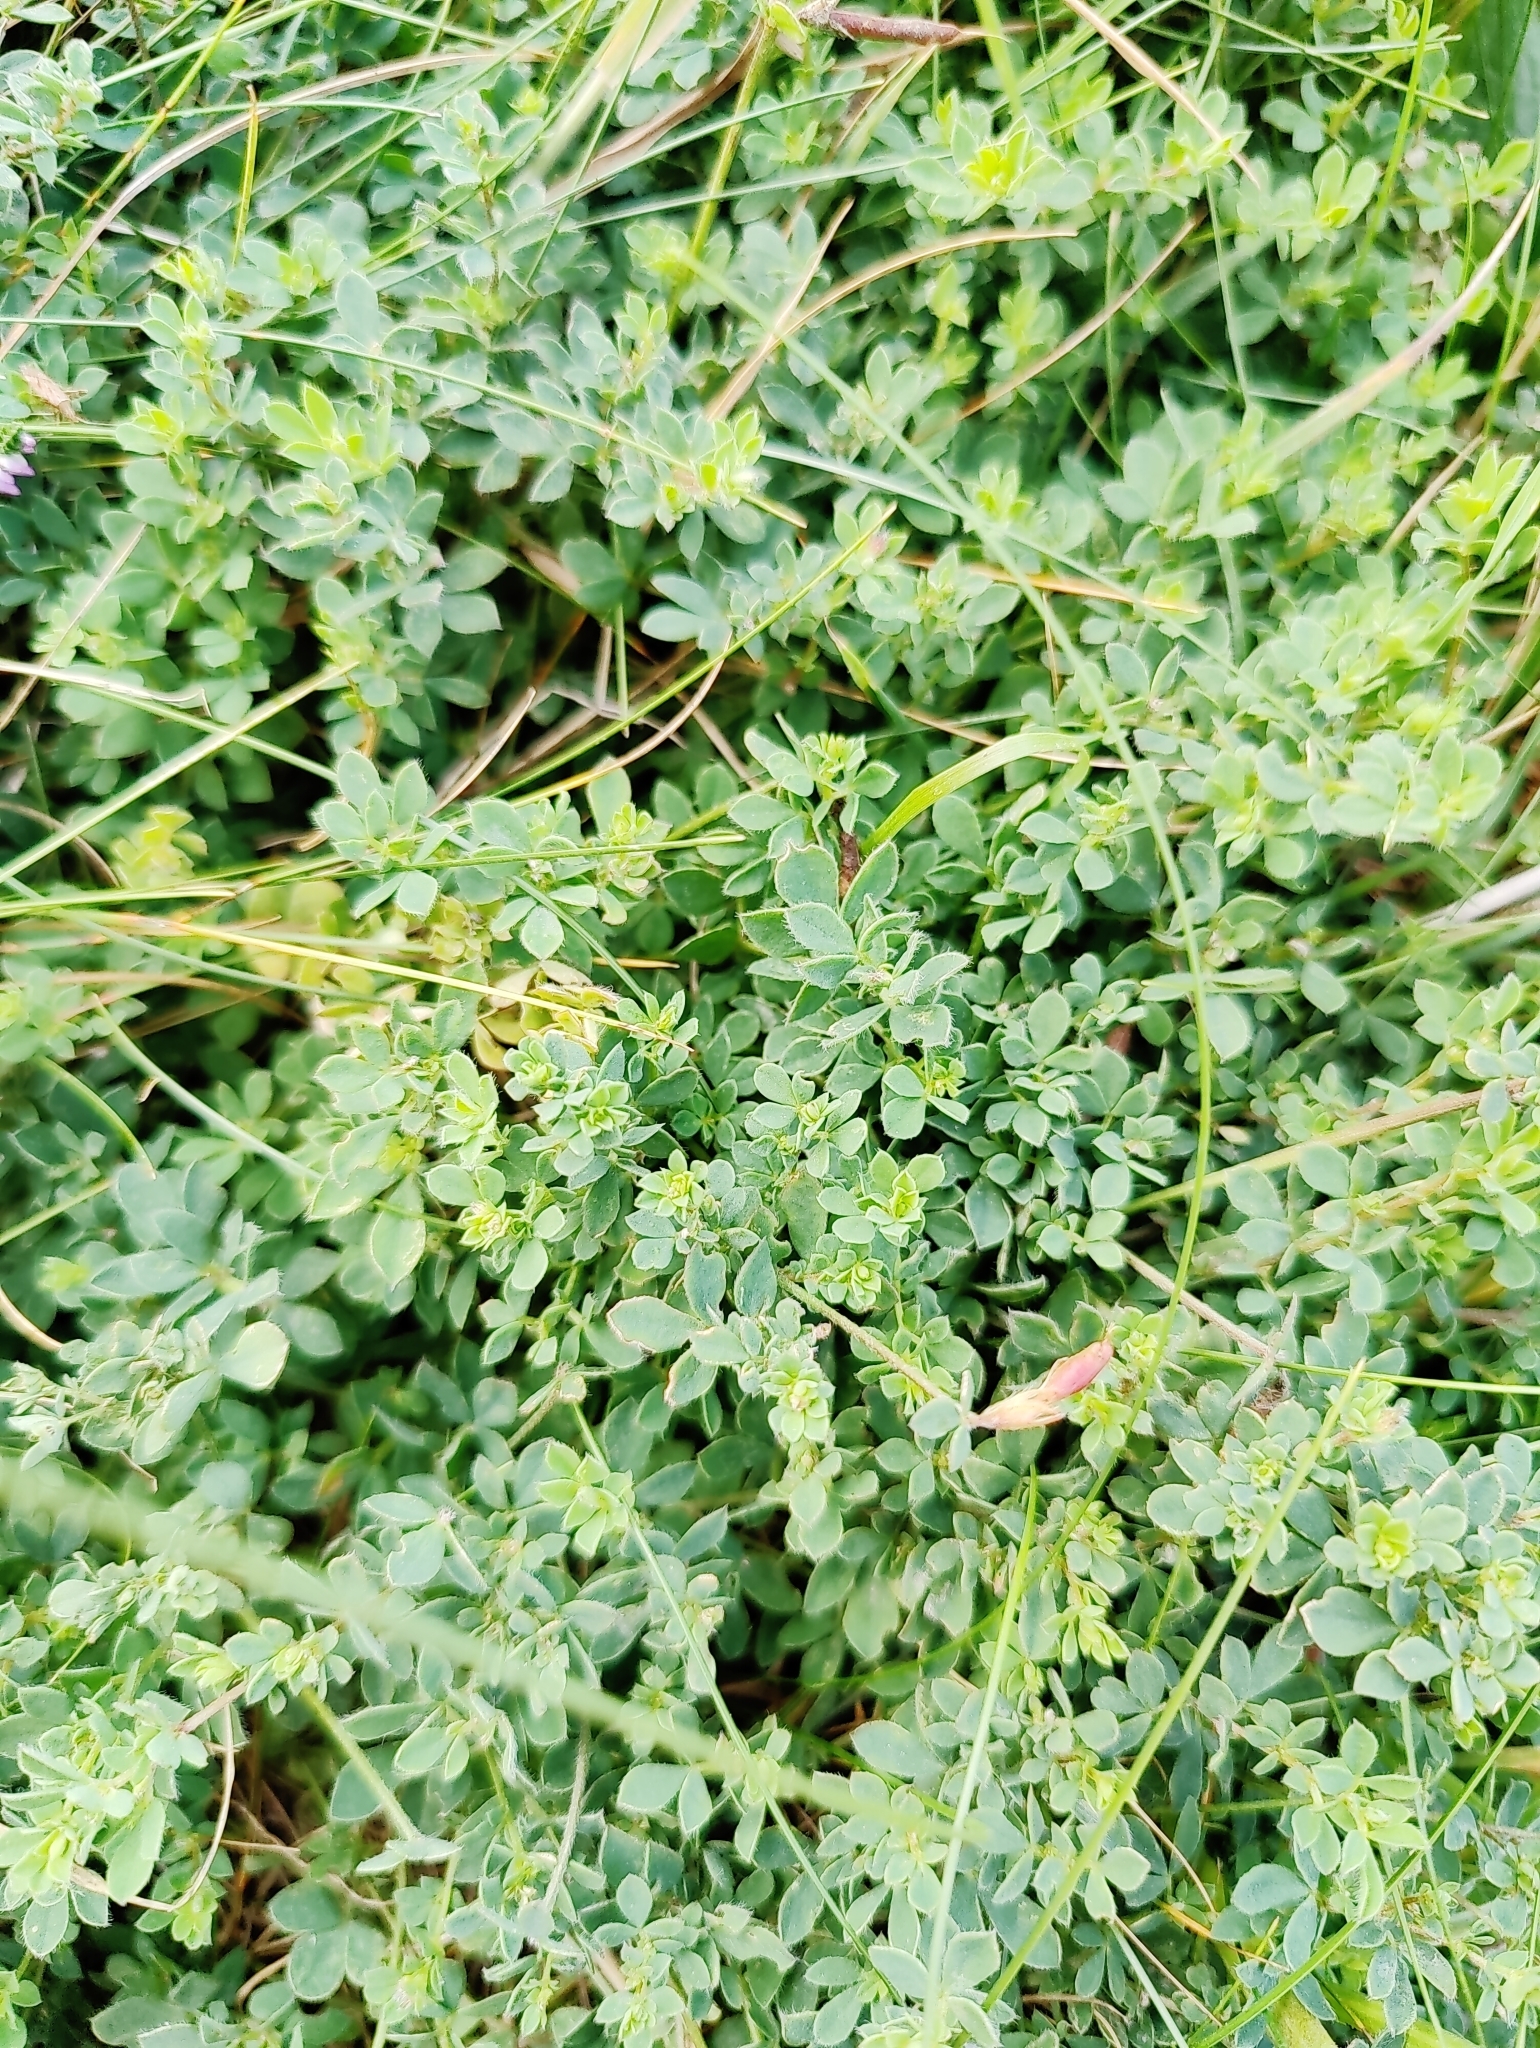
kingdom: Plantae
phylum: Tracheophyta
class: Magnoliopsida
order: Fabales
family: Fabaceae
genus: Lotus
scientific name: Lotus corniculatus
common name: Common bird's-foot-trefoil
